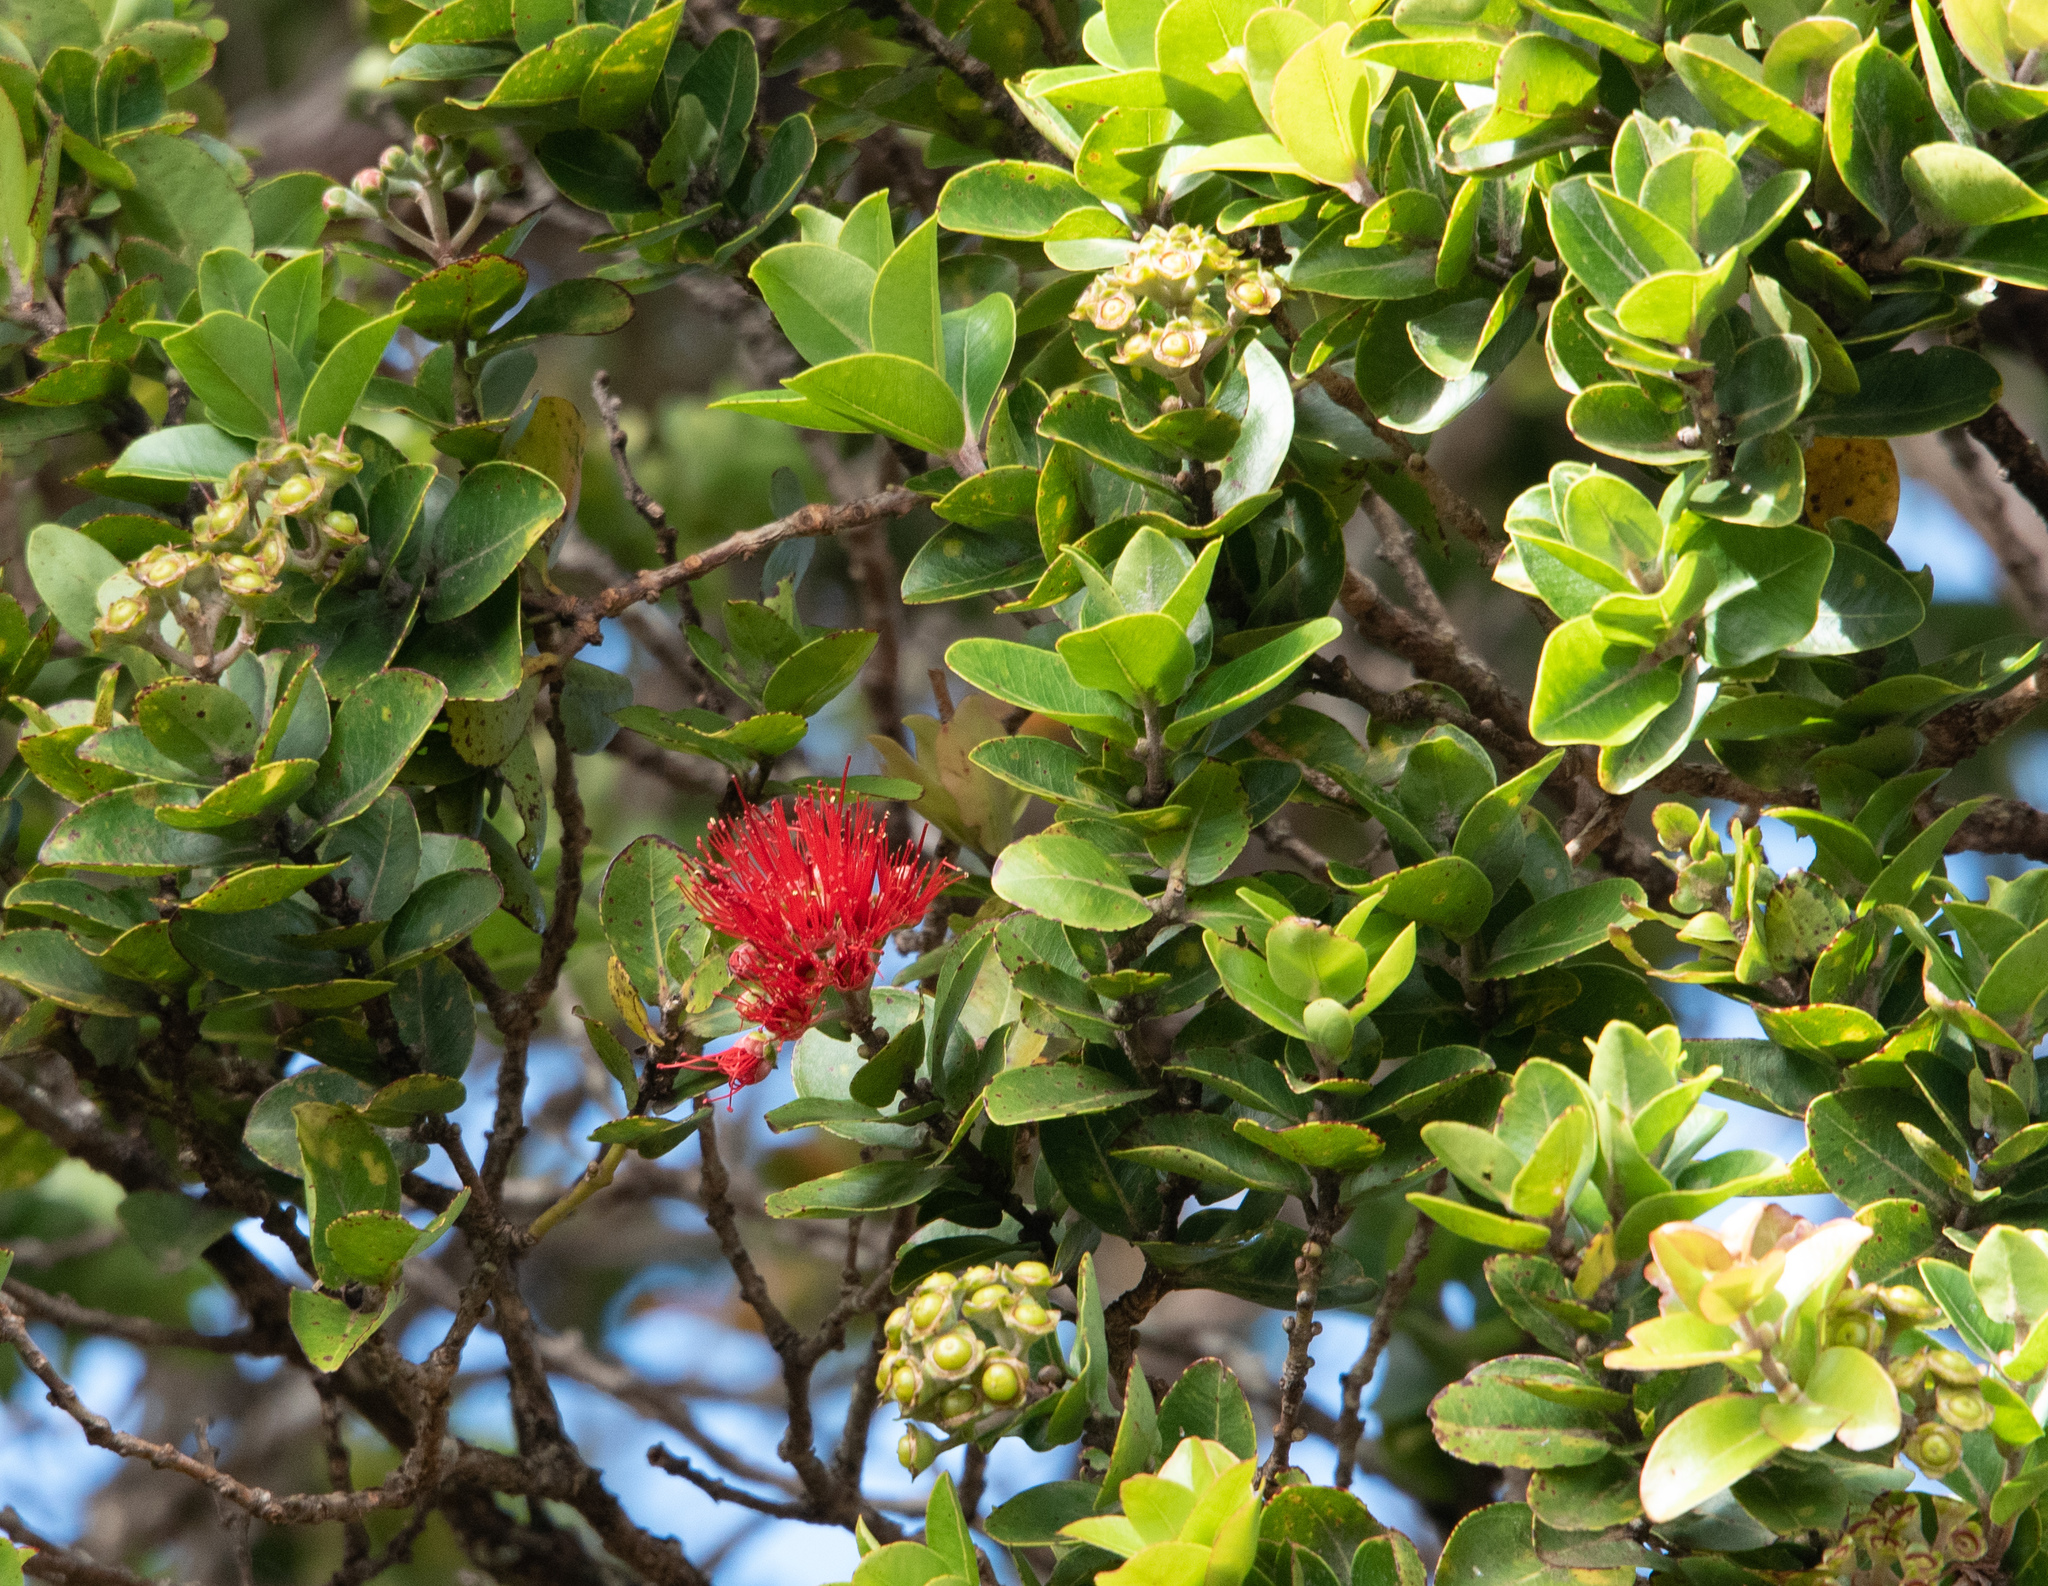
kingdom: Plantae
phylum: Tracheophyta
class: Magnoliopsida
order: Myrtales
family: Myrtaceae
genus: Metrosideros
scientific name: Metrosideros polymorpha
